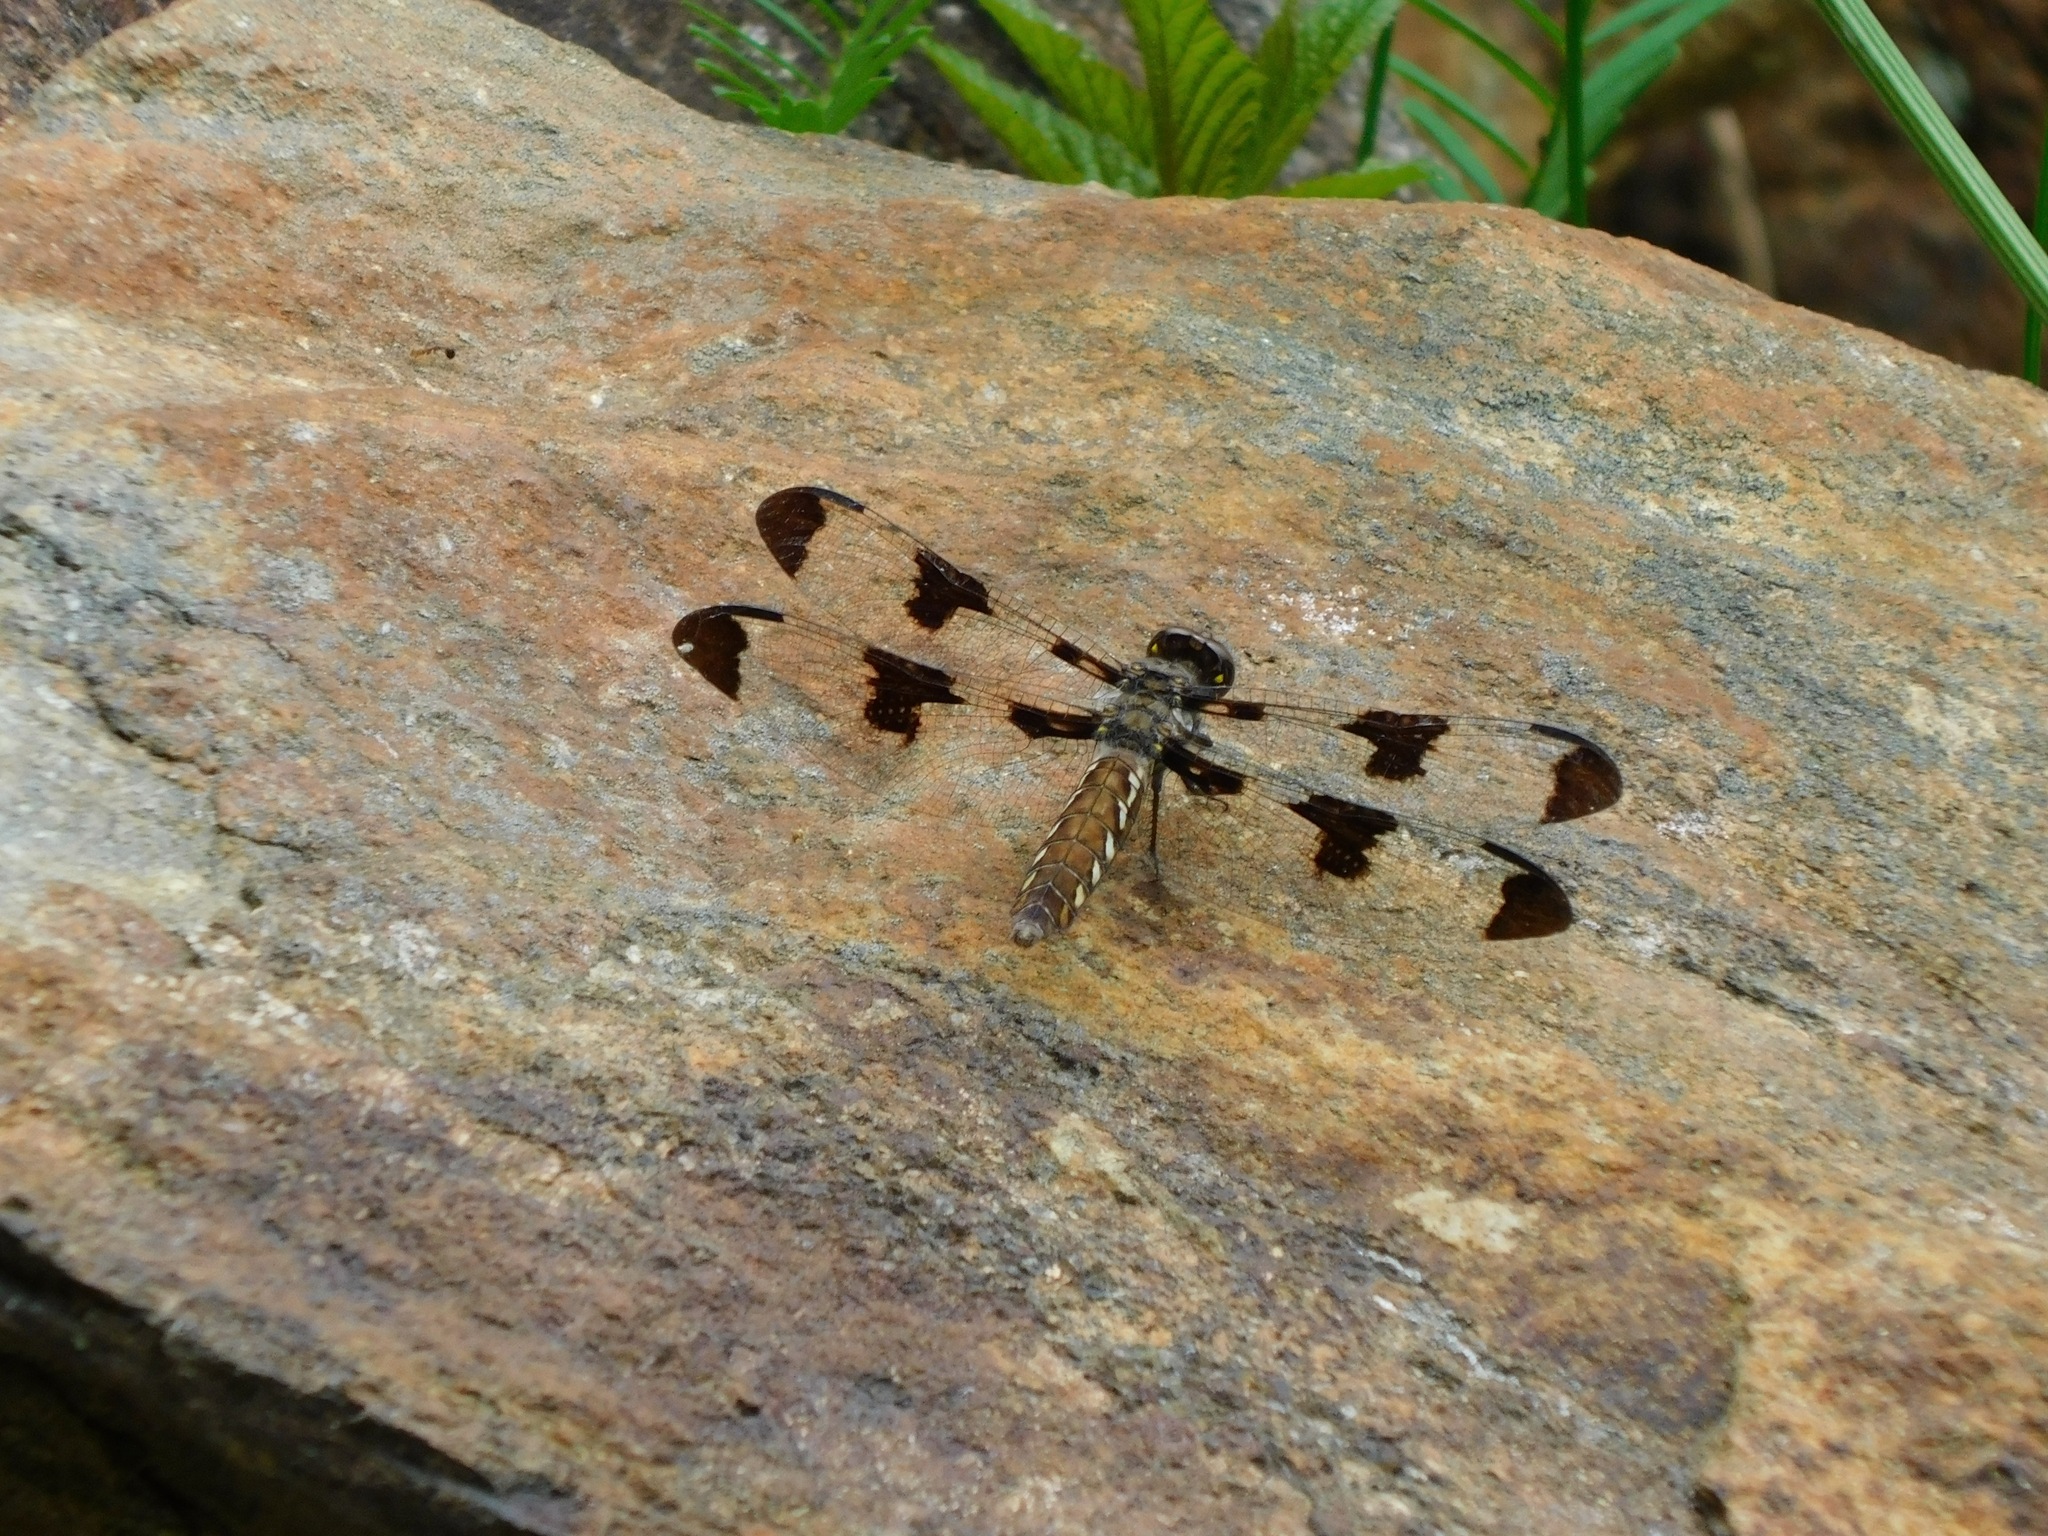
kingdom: Animalia
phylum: Arthropoda
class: Insecta
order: Odonata
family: Libellulidae
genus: Plathemis
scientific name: Plathemis lydia
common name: Common whitetail
